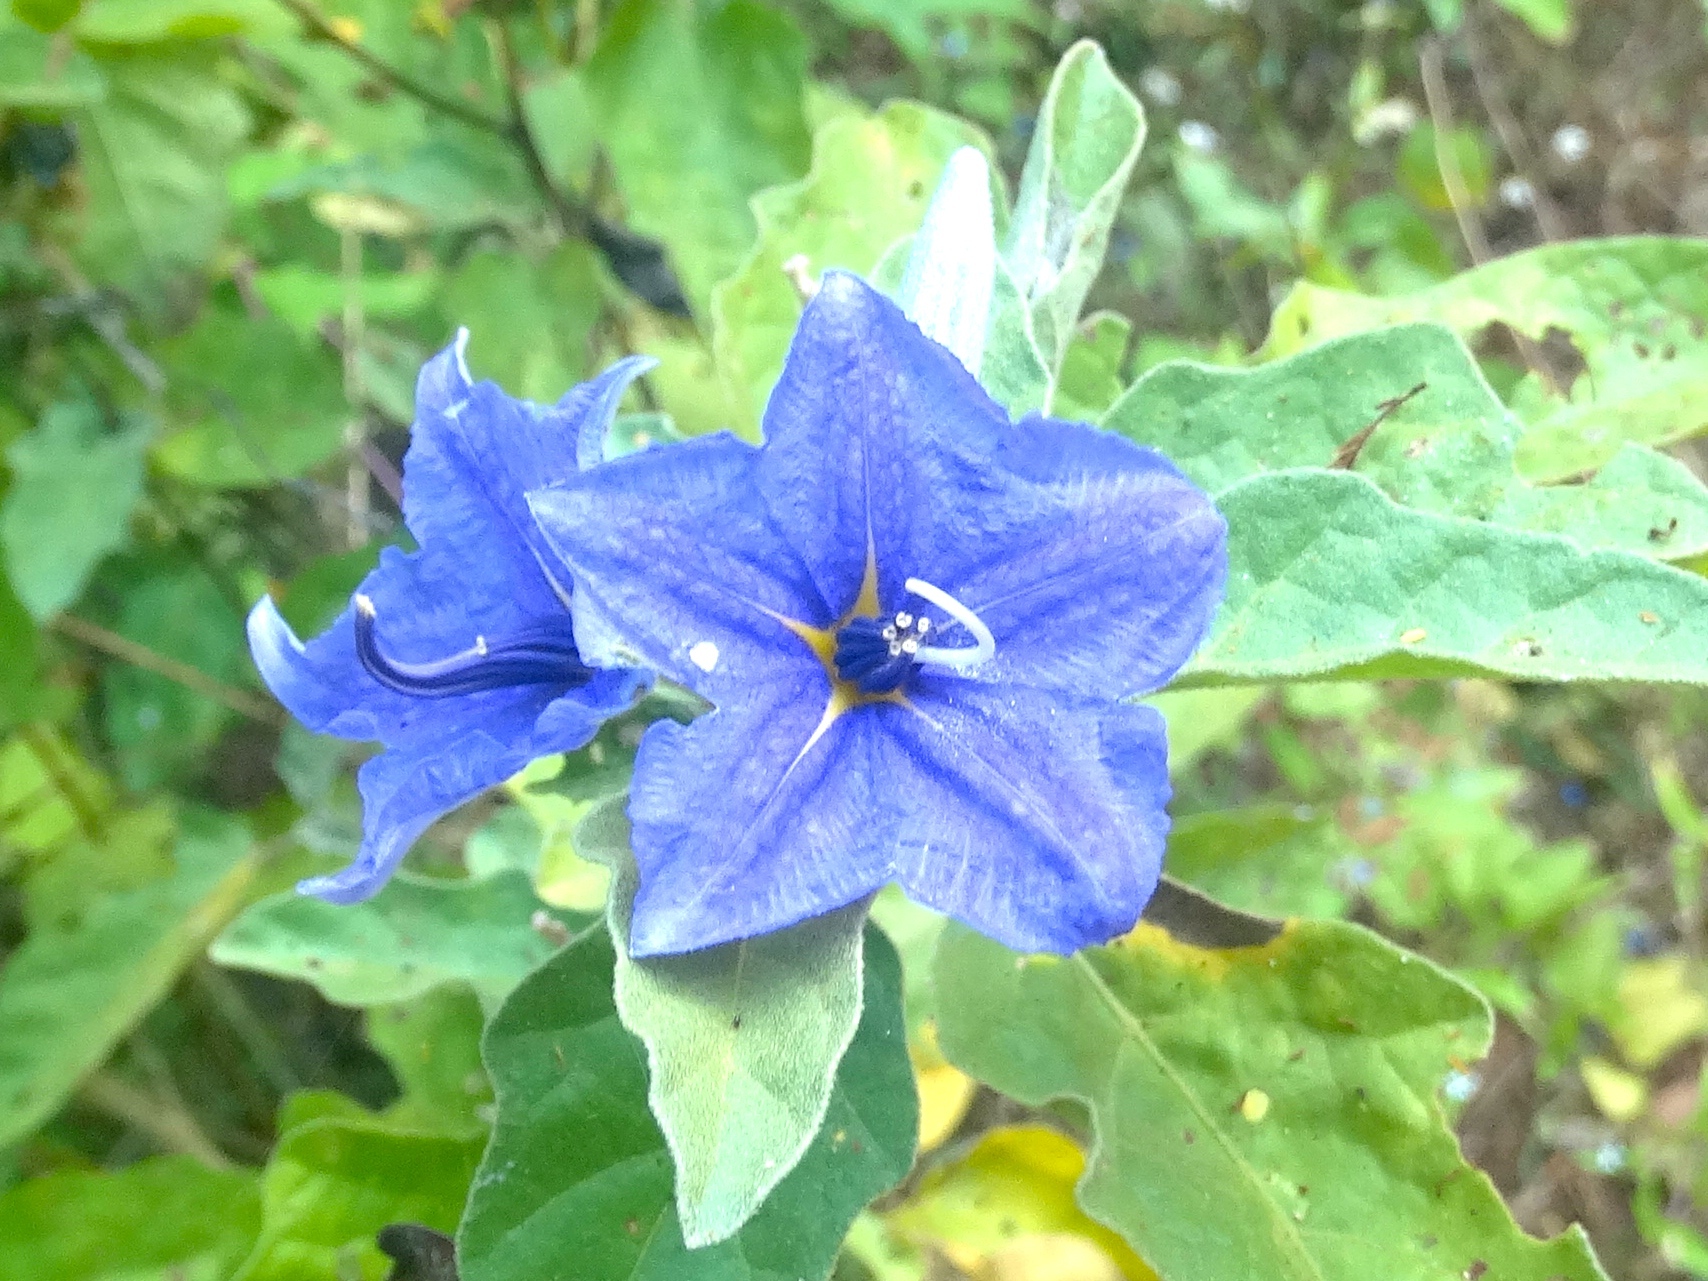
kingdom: Plantae
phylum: Tracheophyta
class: Magnoliopsida
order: Solanales
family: Solanaceae
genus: Solanum
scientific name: Solanum houstonii
